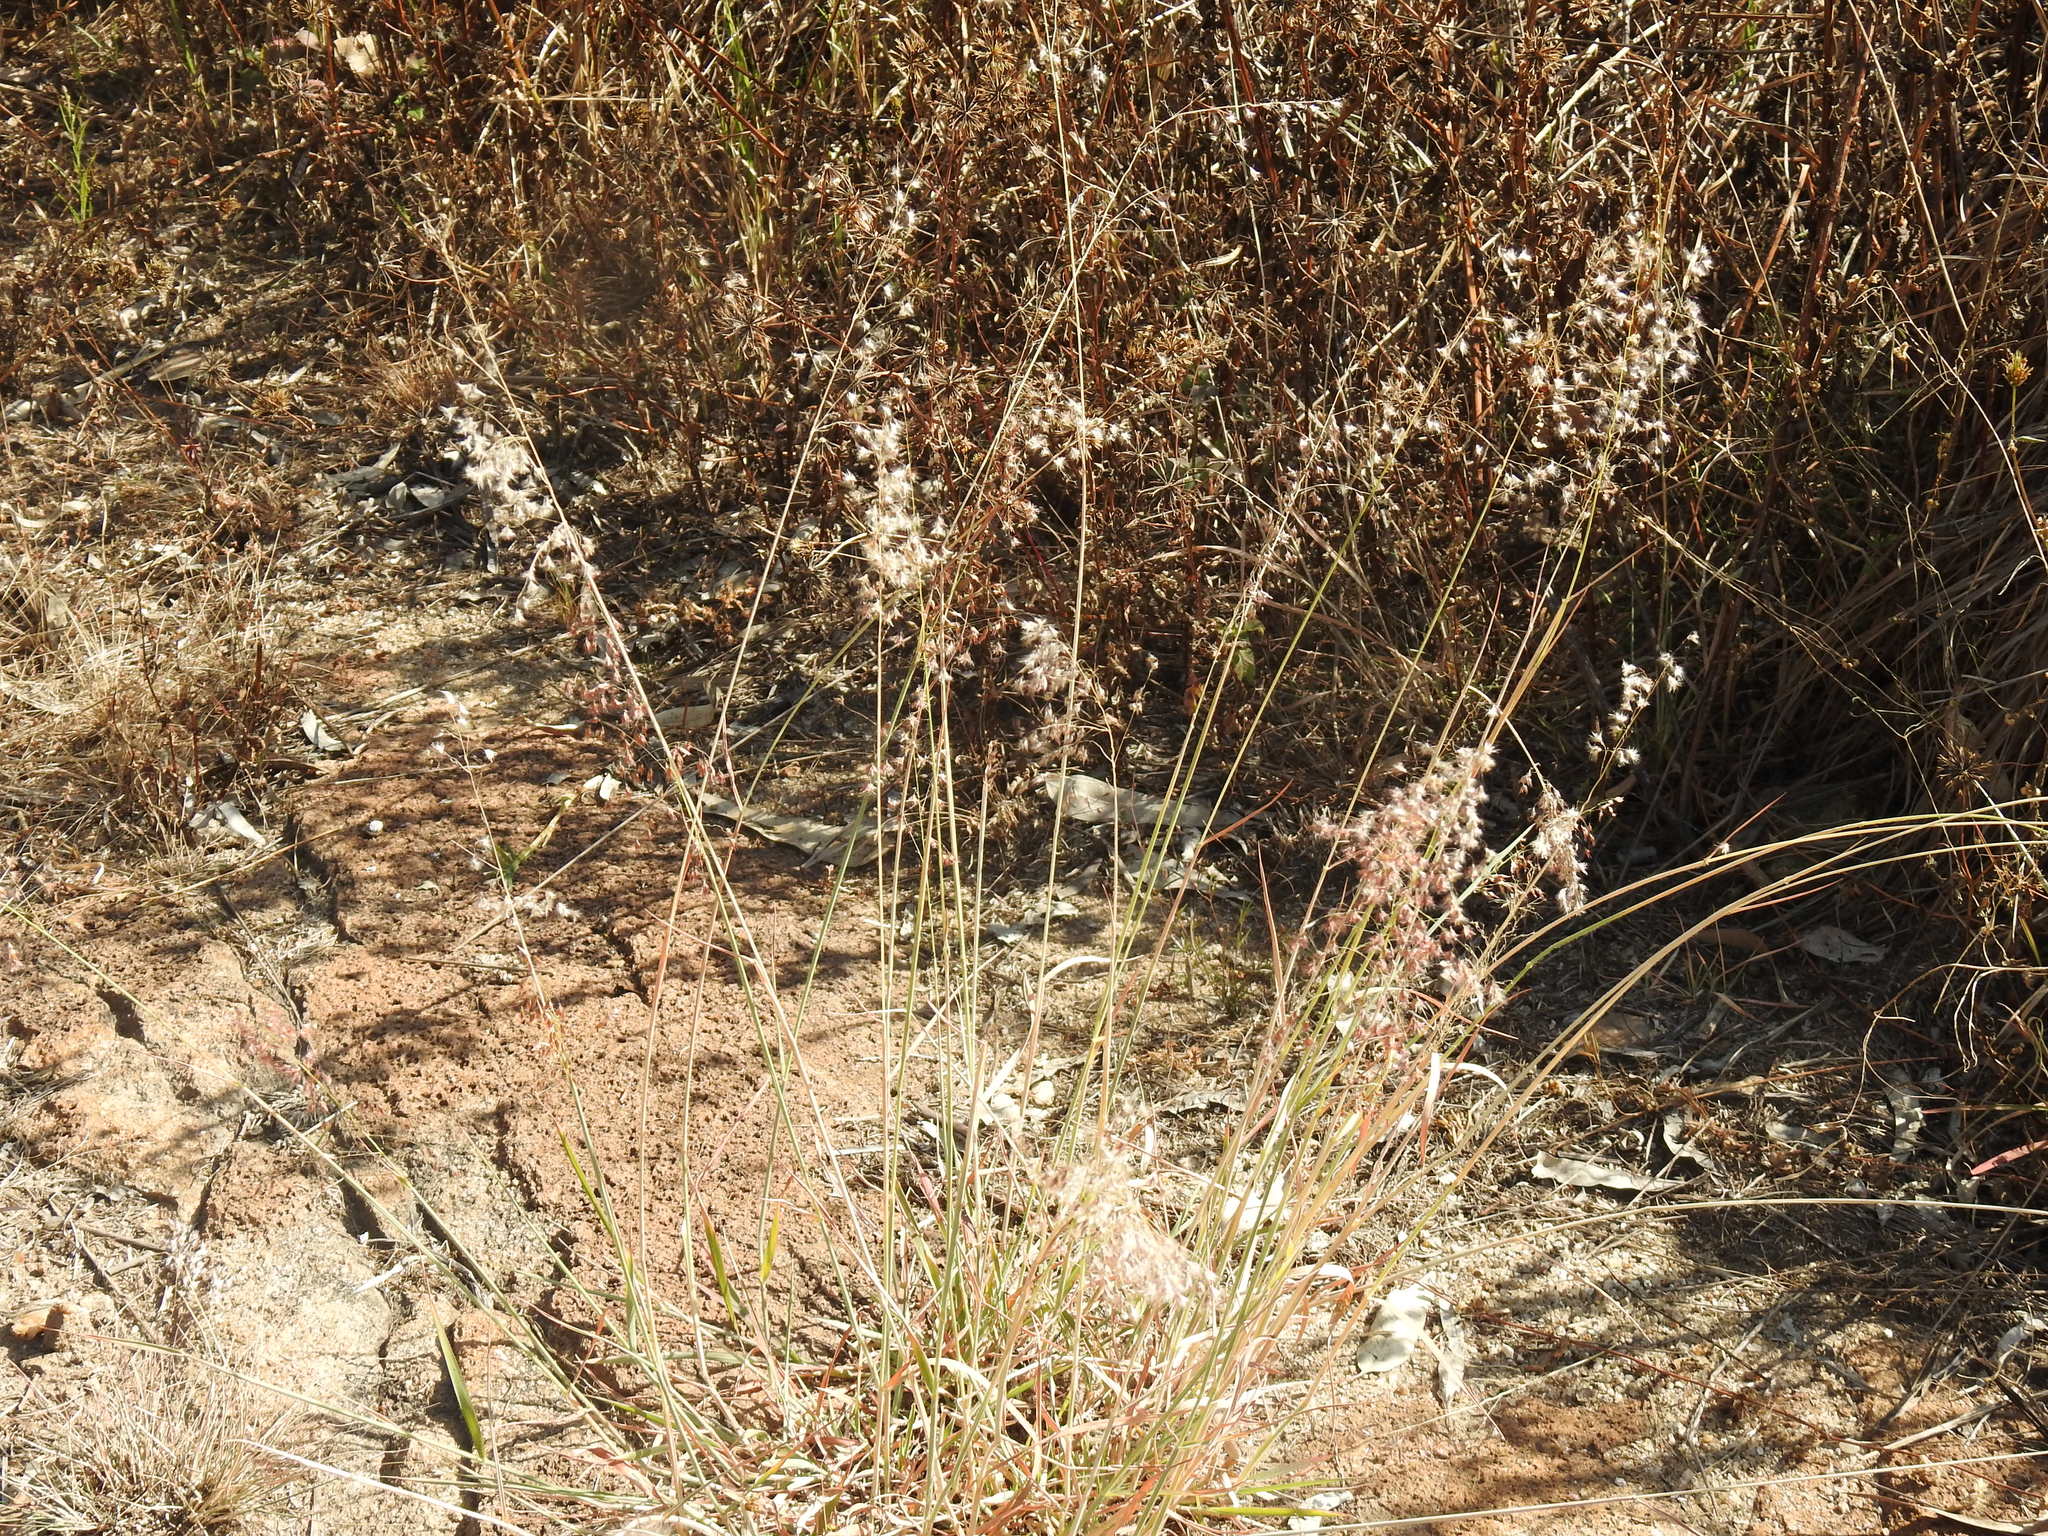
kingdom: Plantae
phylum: Tracheophyta
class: Liliopsida
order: Poales
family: Poaceae
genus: Melinis
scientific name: Melinis repens
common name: Rose natal grass
